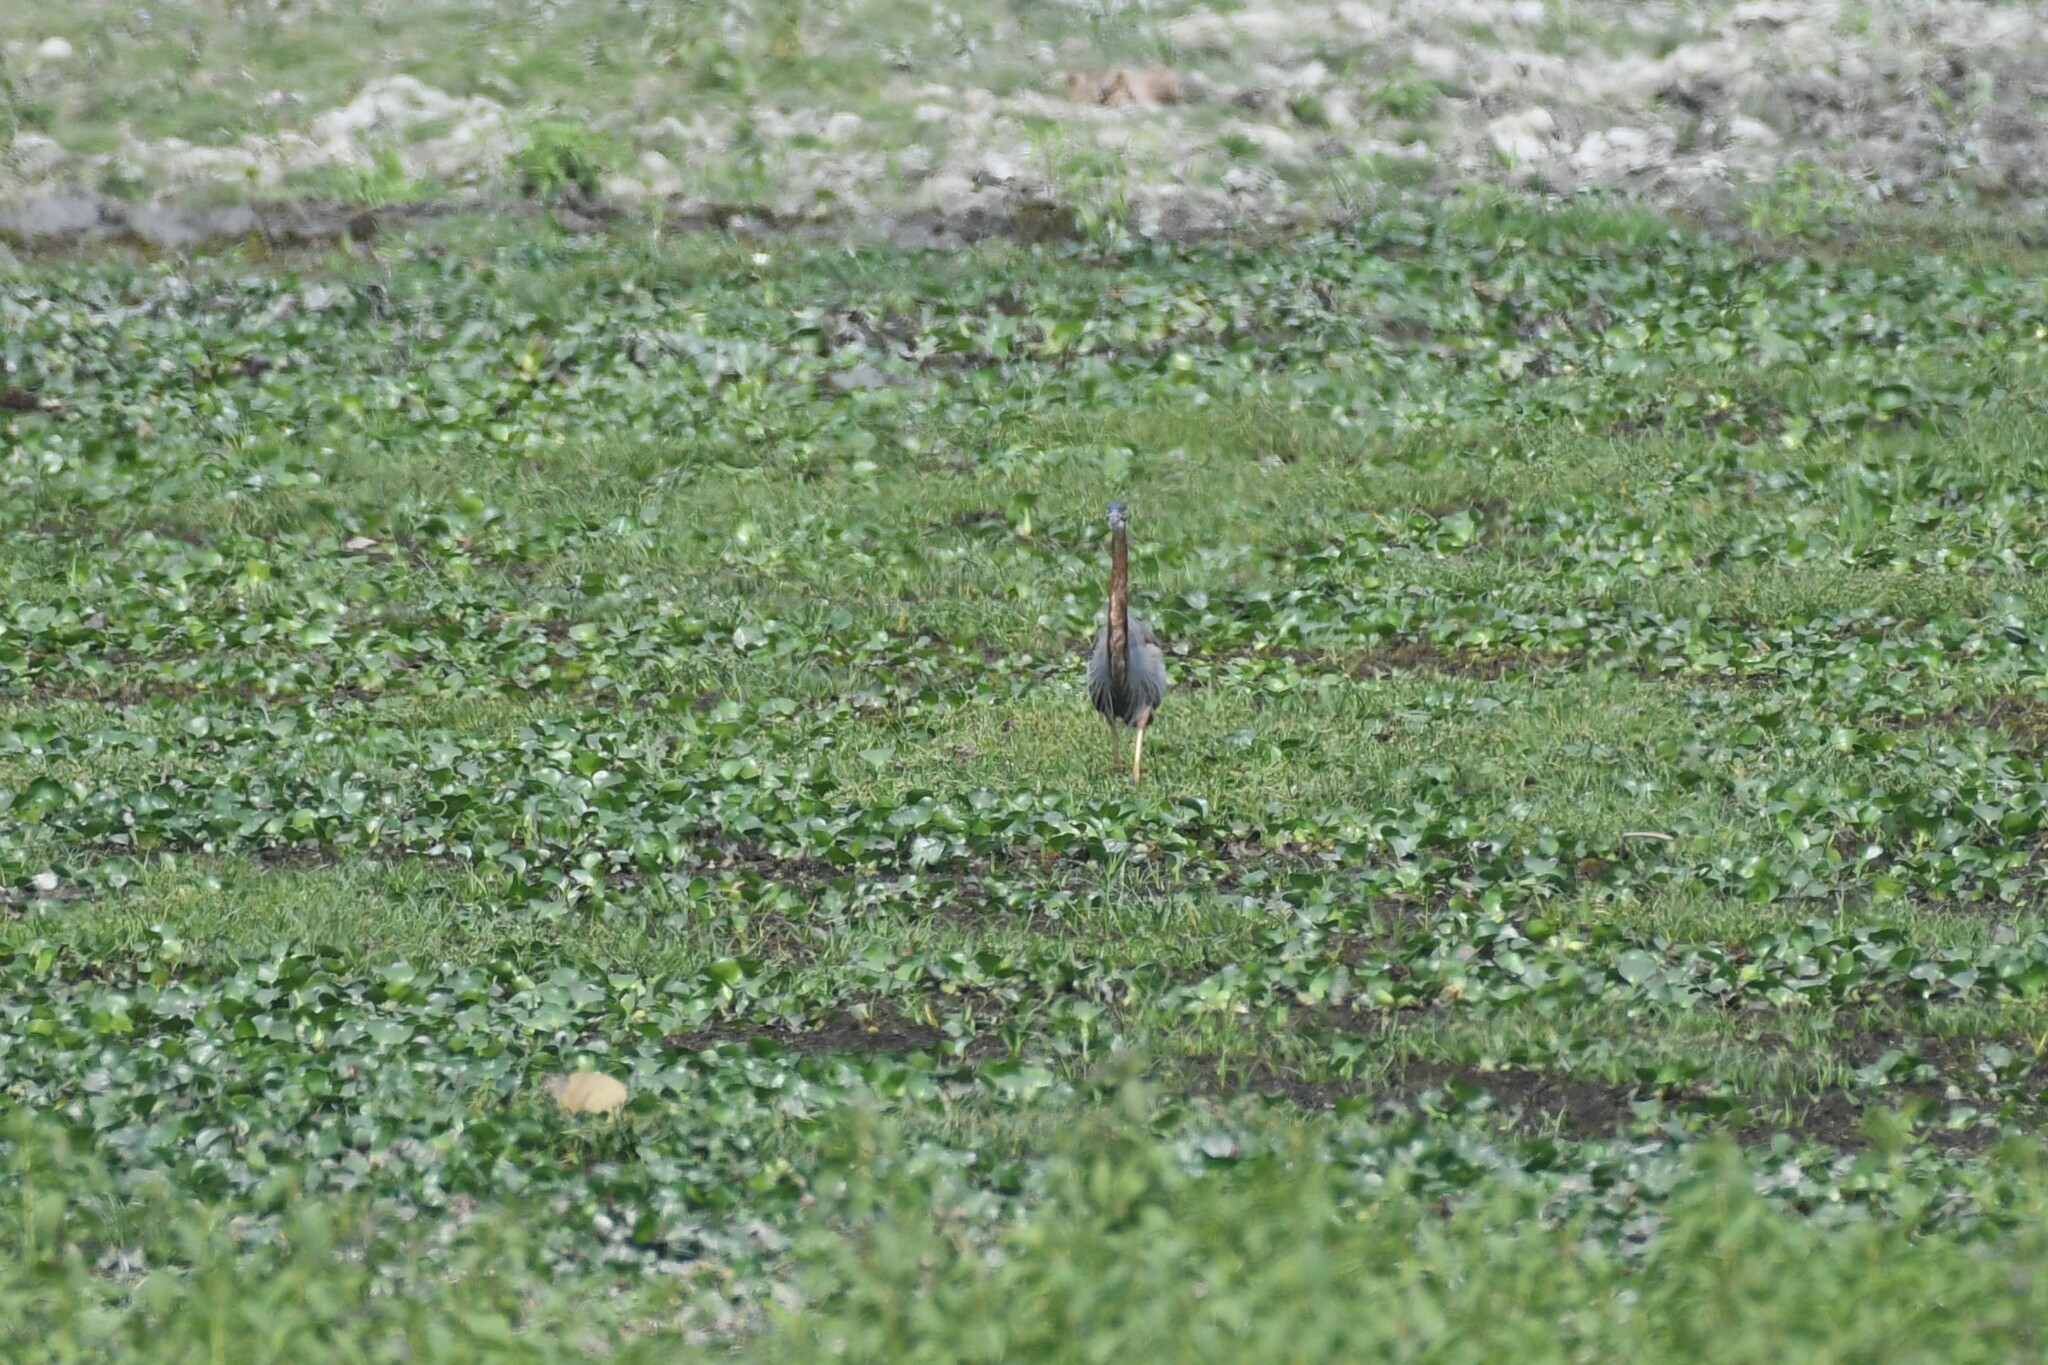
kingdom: Animalia
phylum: Chordata
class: Aves
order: Pelecaniformes
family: Ardeidae
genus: Ardea
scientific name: Ardea purpurea
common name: Purple heron
